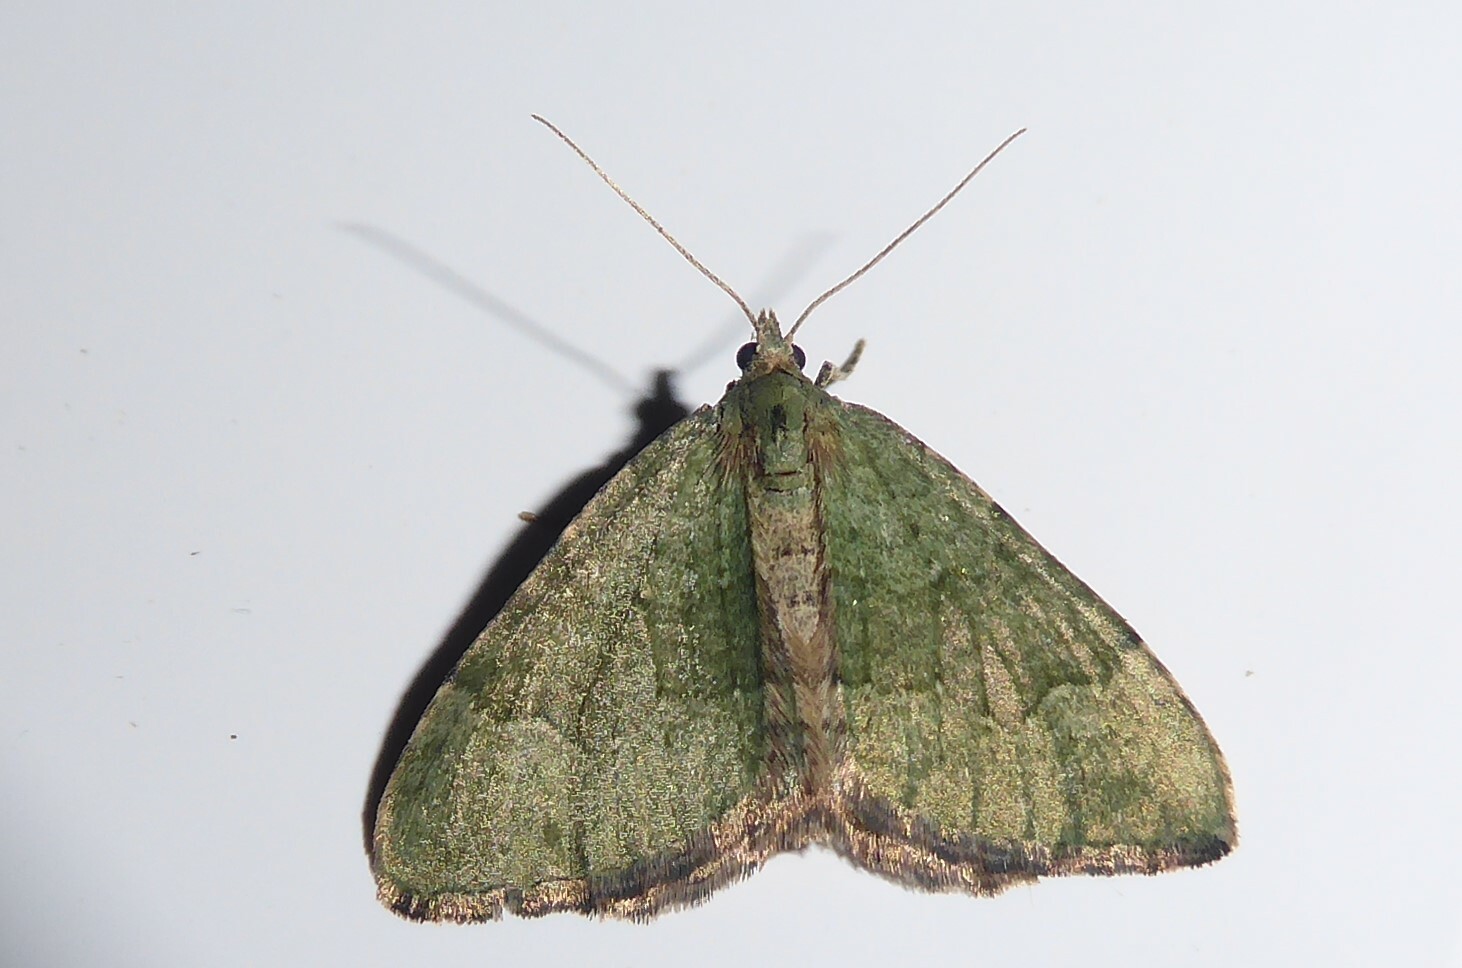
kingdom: Animalia
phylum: Arthropoda
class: Insecta
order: Lepidoptera
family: Geometridae
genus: Epyaxa
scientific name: Epyaxa rosearia
